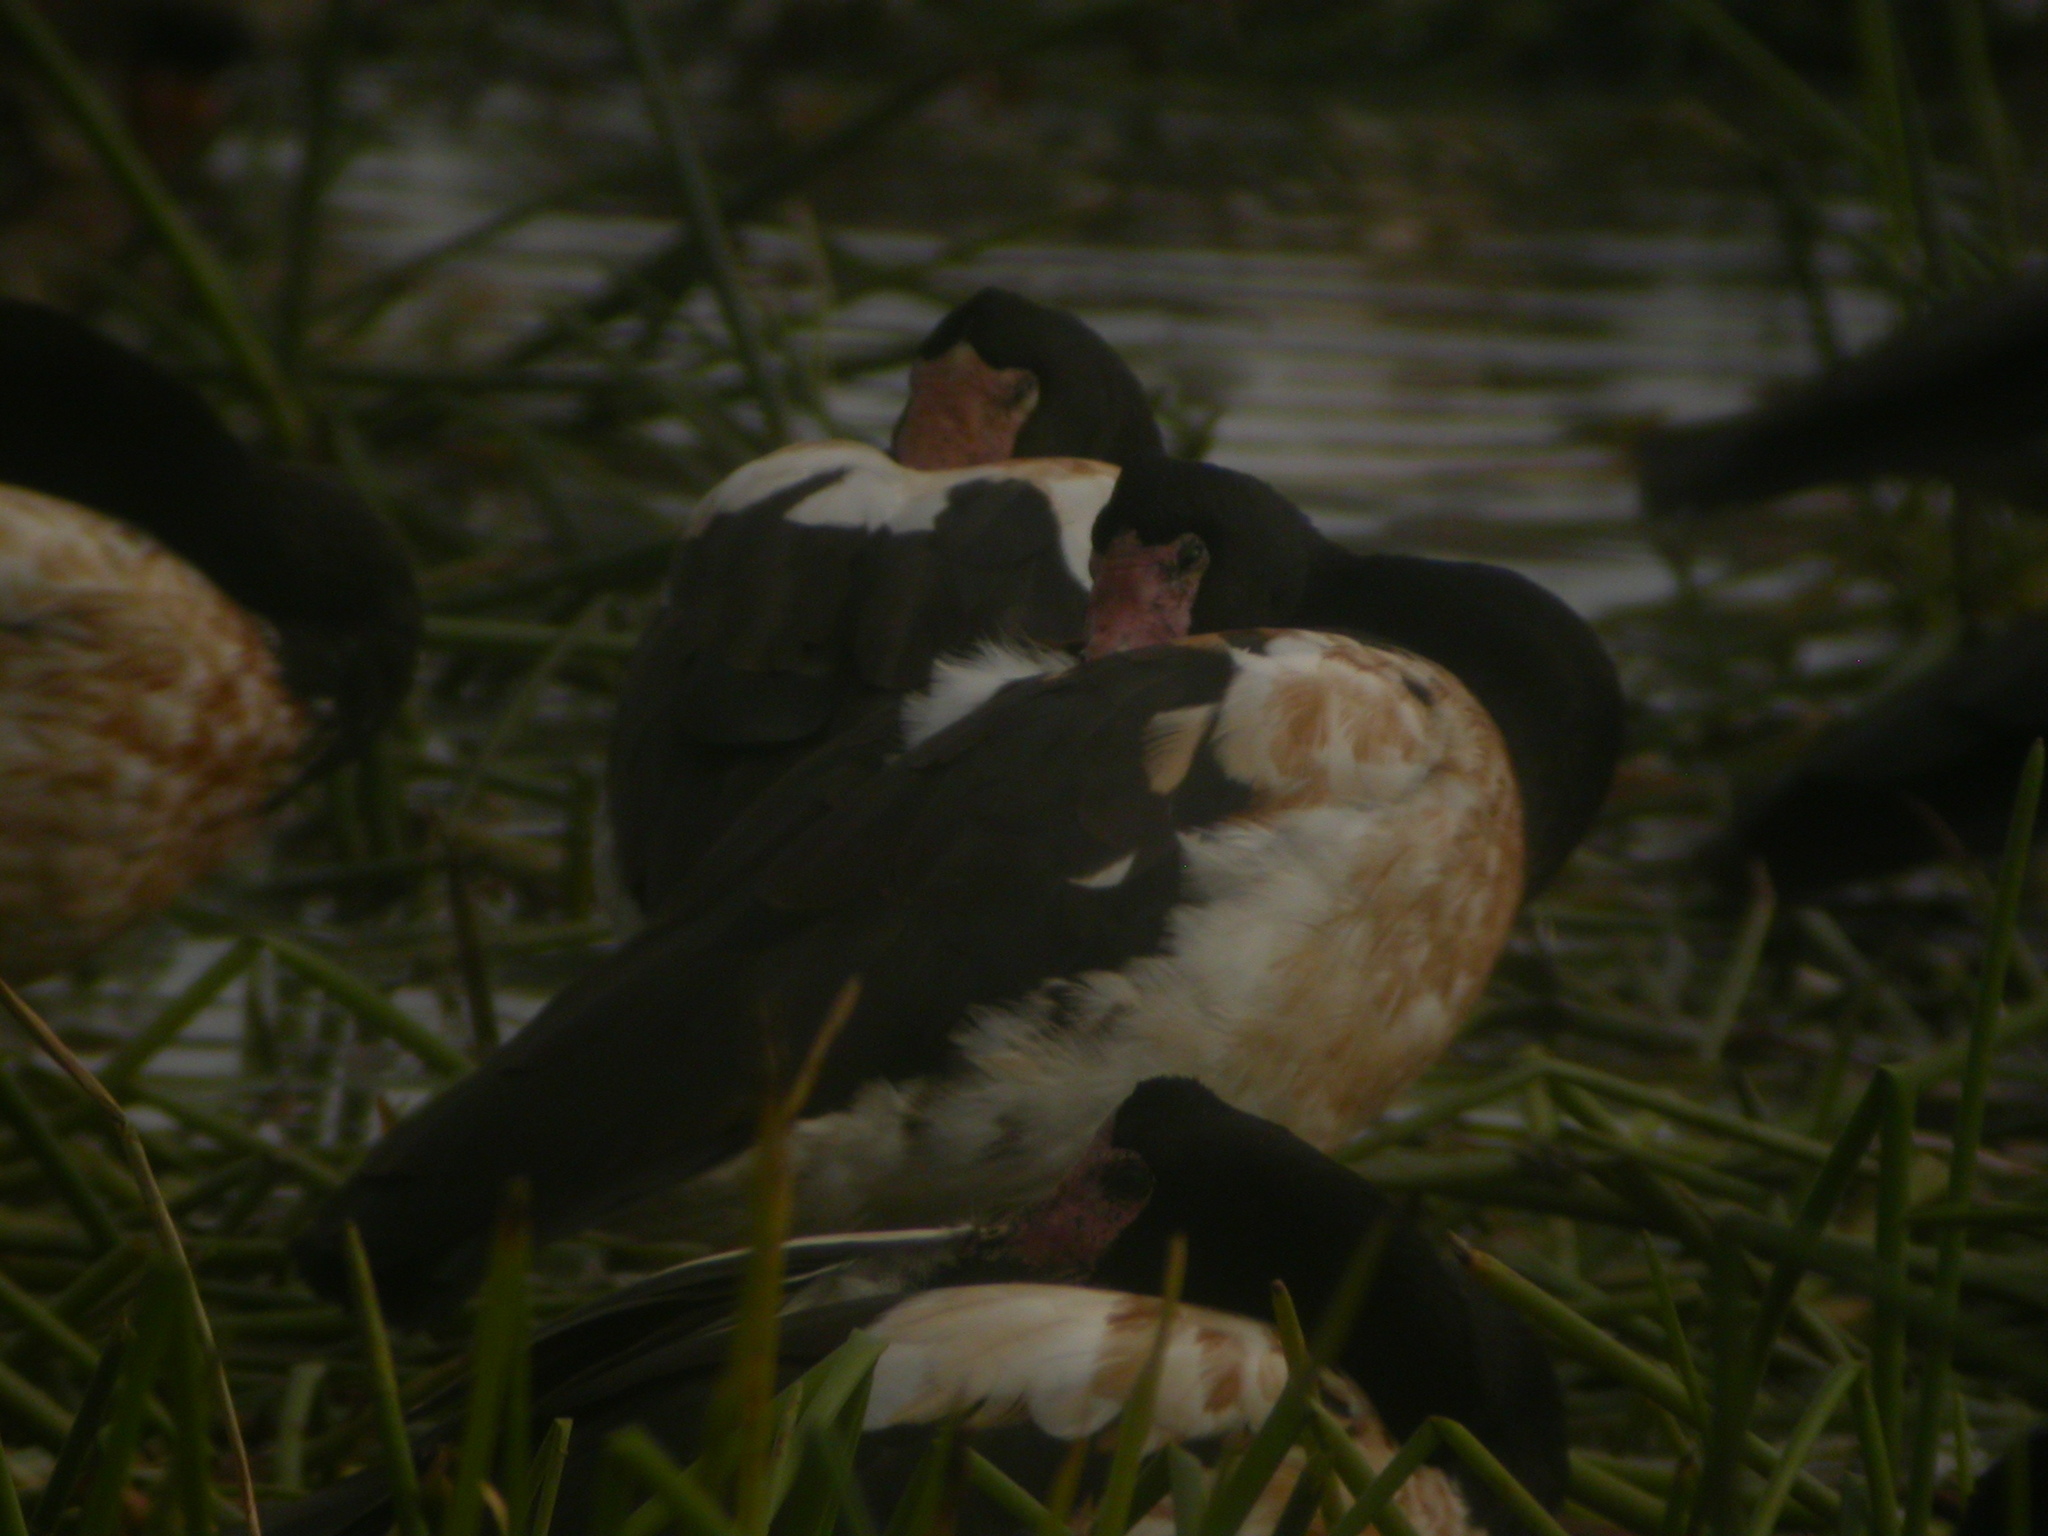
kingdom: Animalia
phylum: Chordata
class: Aves
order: Anseriformes
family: Anseranatidae
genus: Anseranas
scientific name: Anseranas semipalmata
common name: Magpie goose
